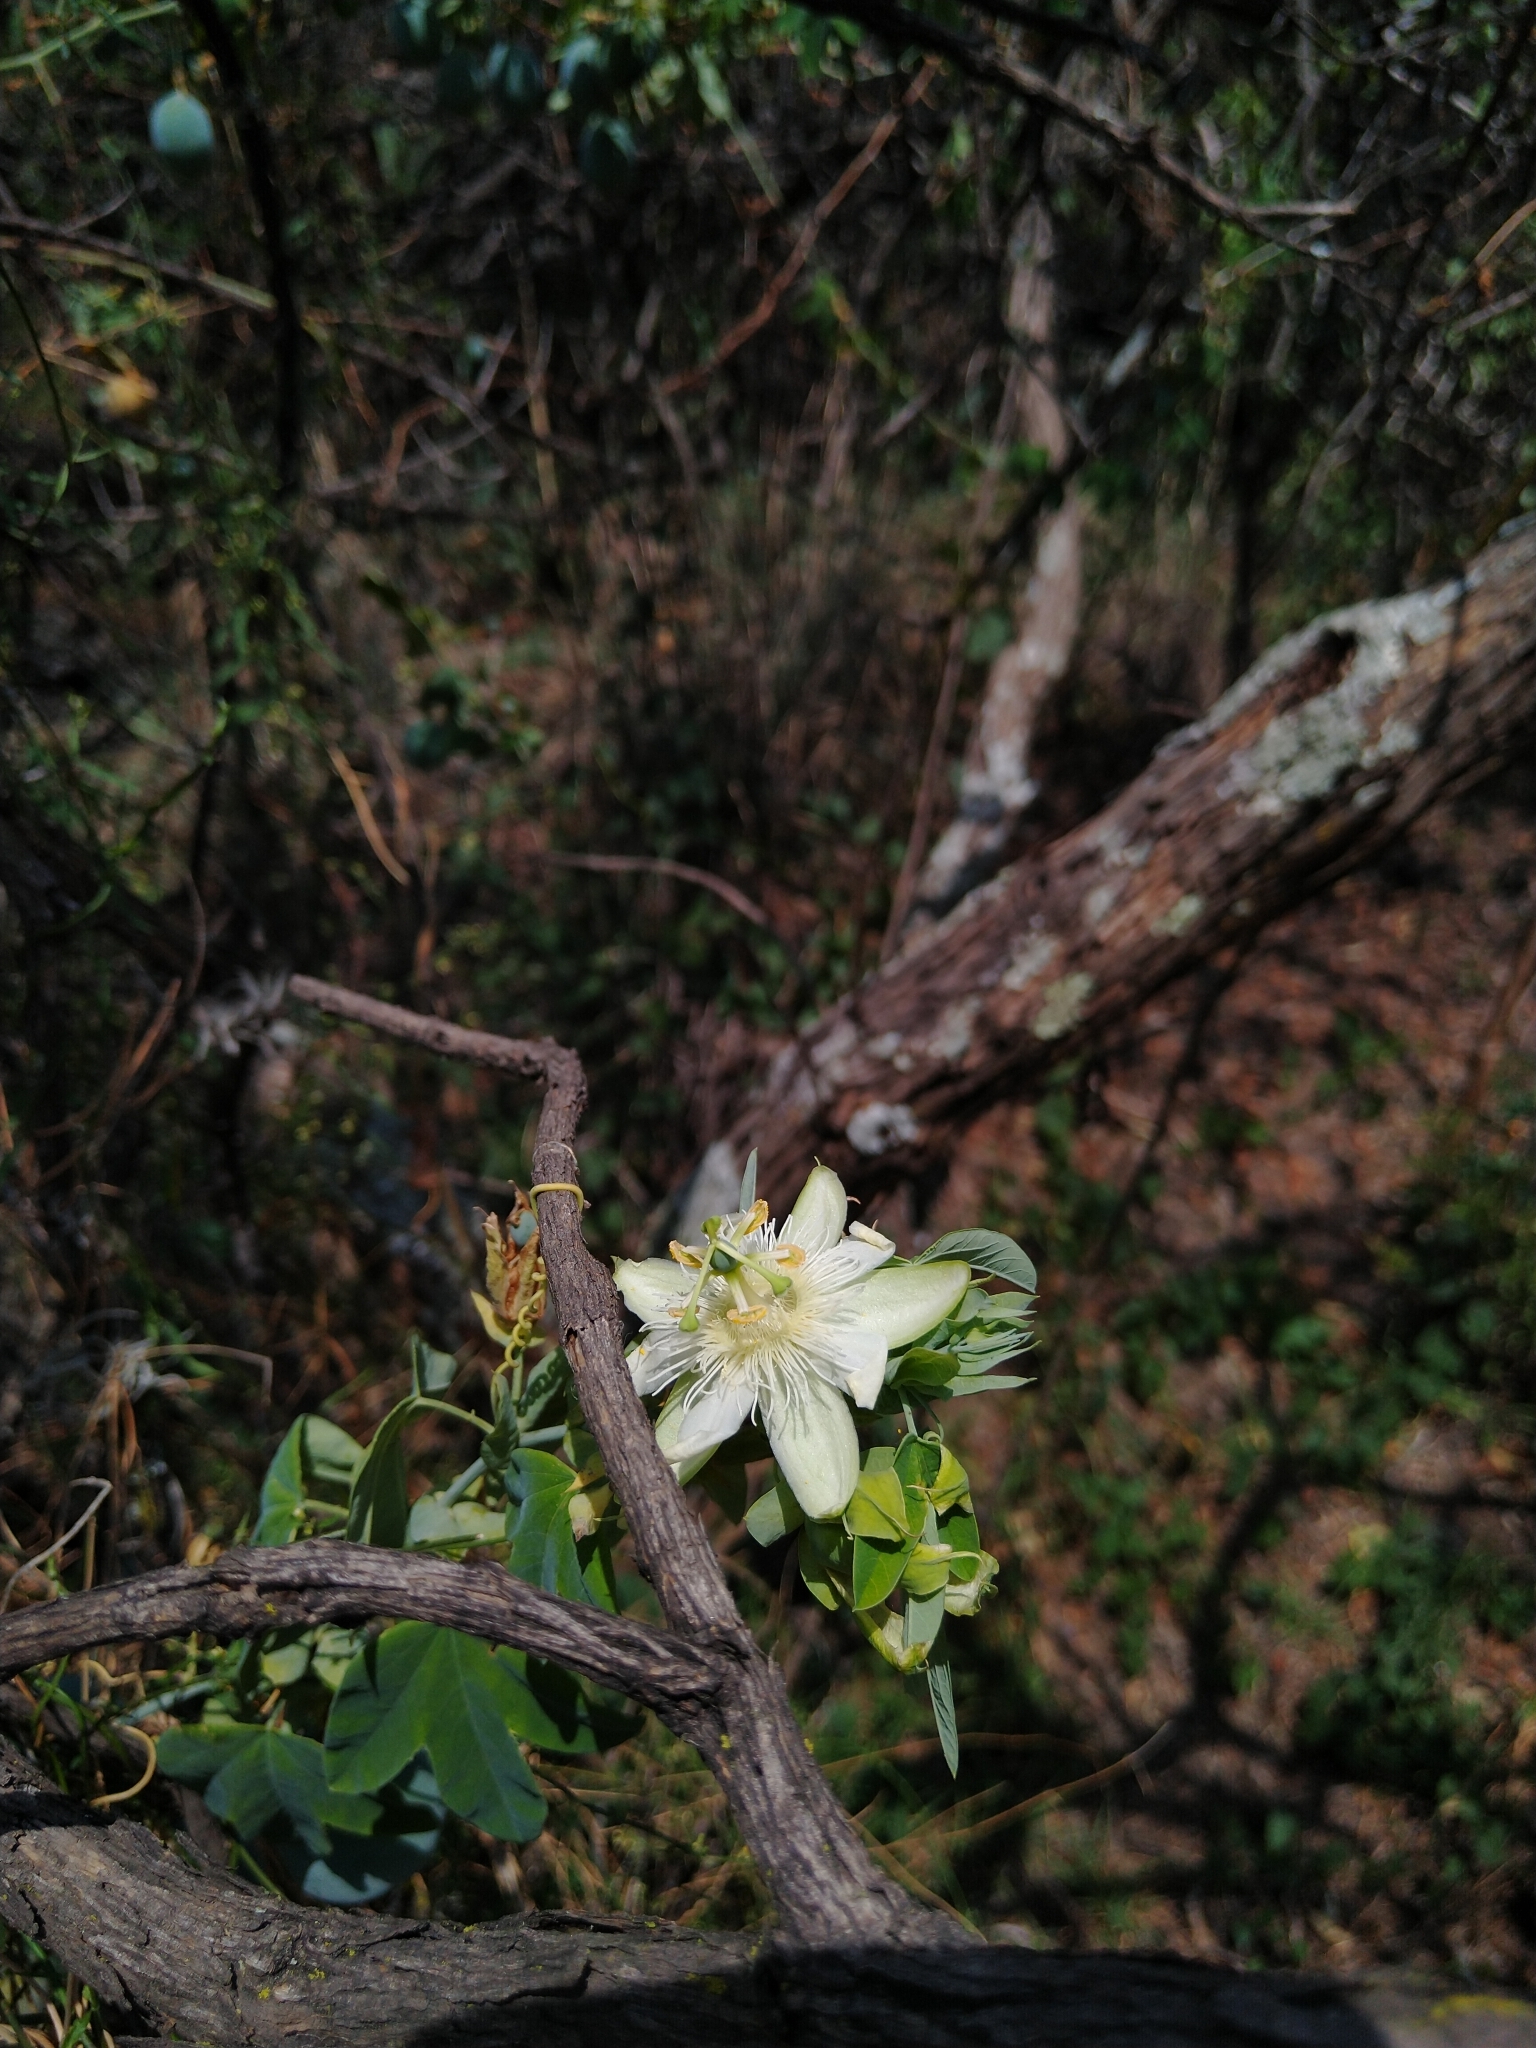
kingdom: Plantae
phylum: Tracheophyta
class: Magnoliopsida
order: Malpighiales
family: Passifloraceae
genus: Passiflora
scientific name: Passiflora subpeltata
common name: White passionflower
